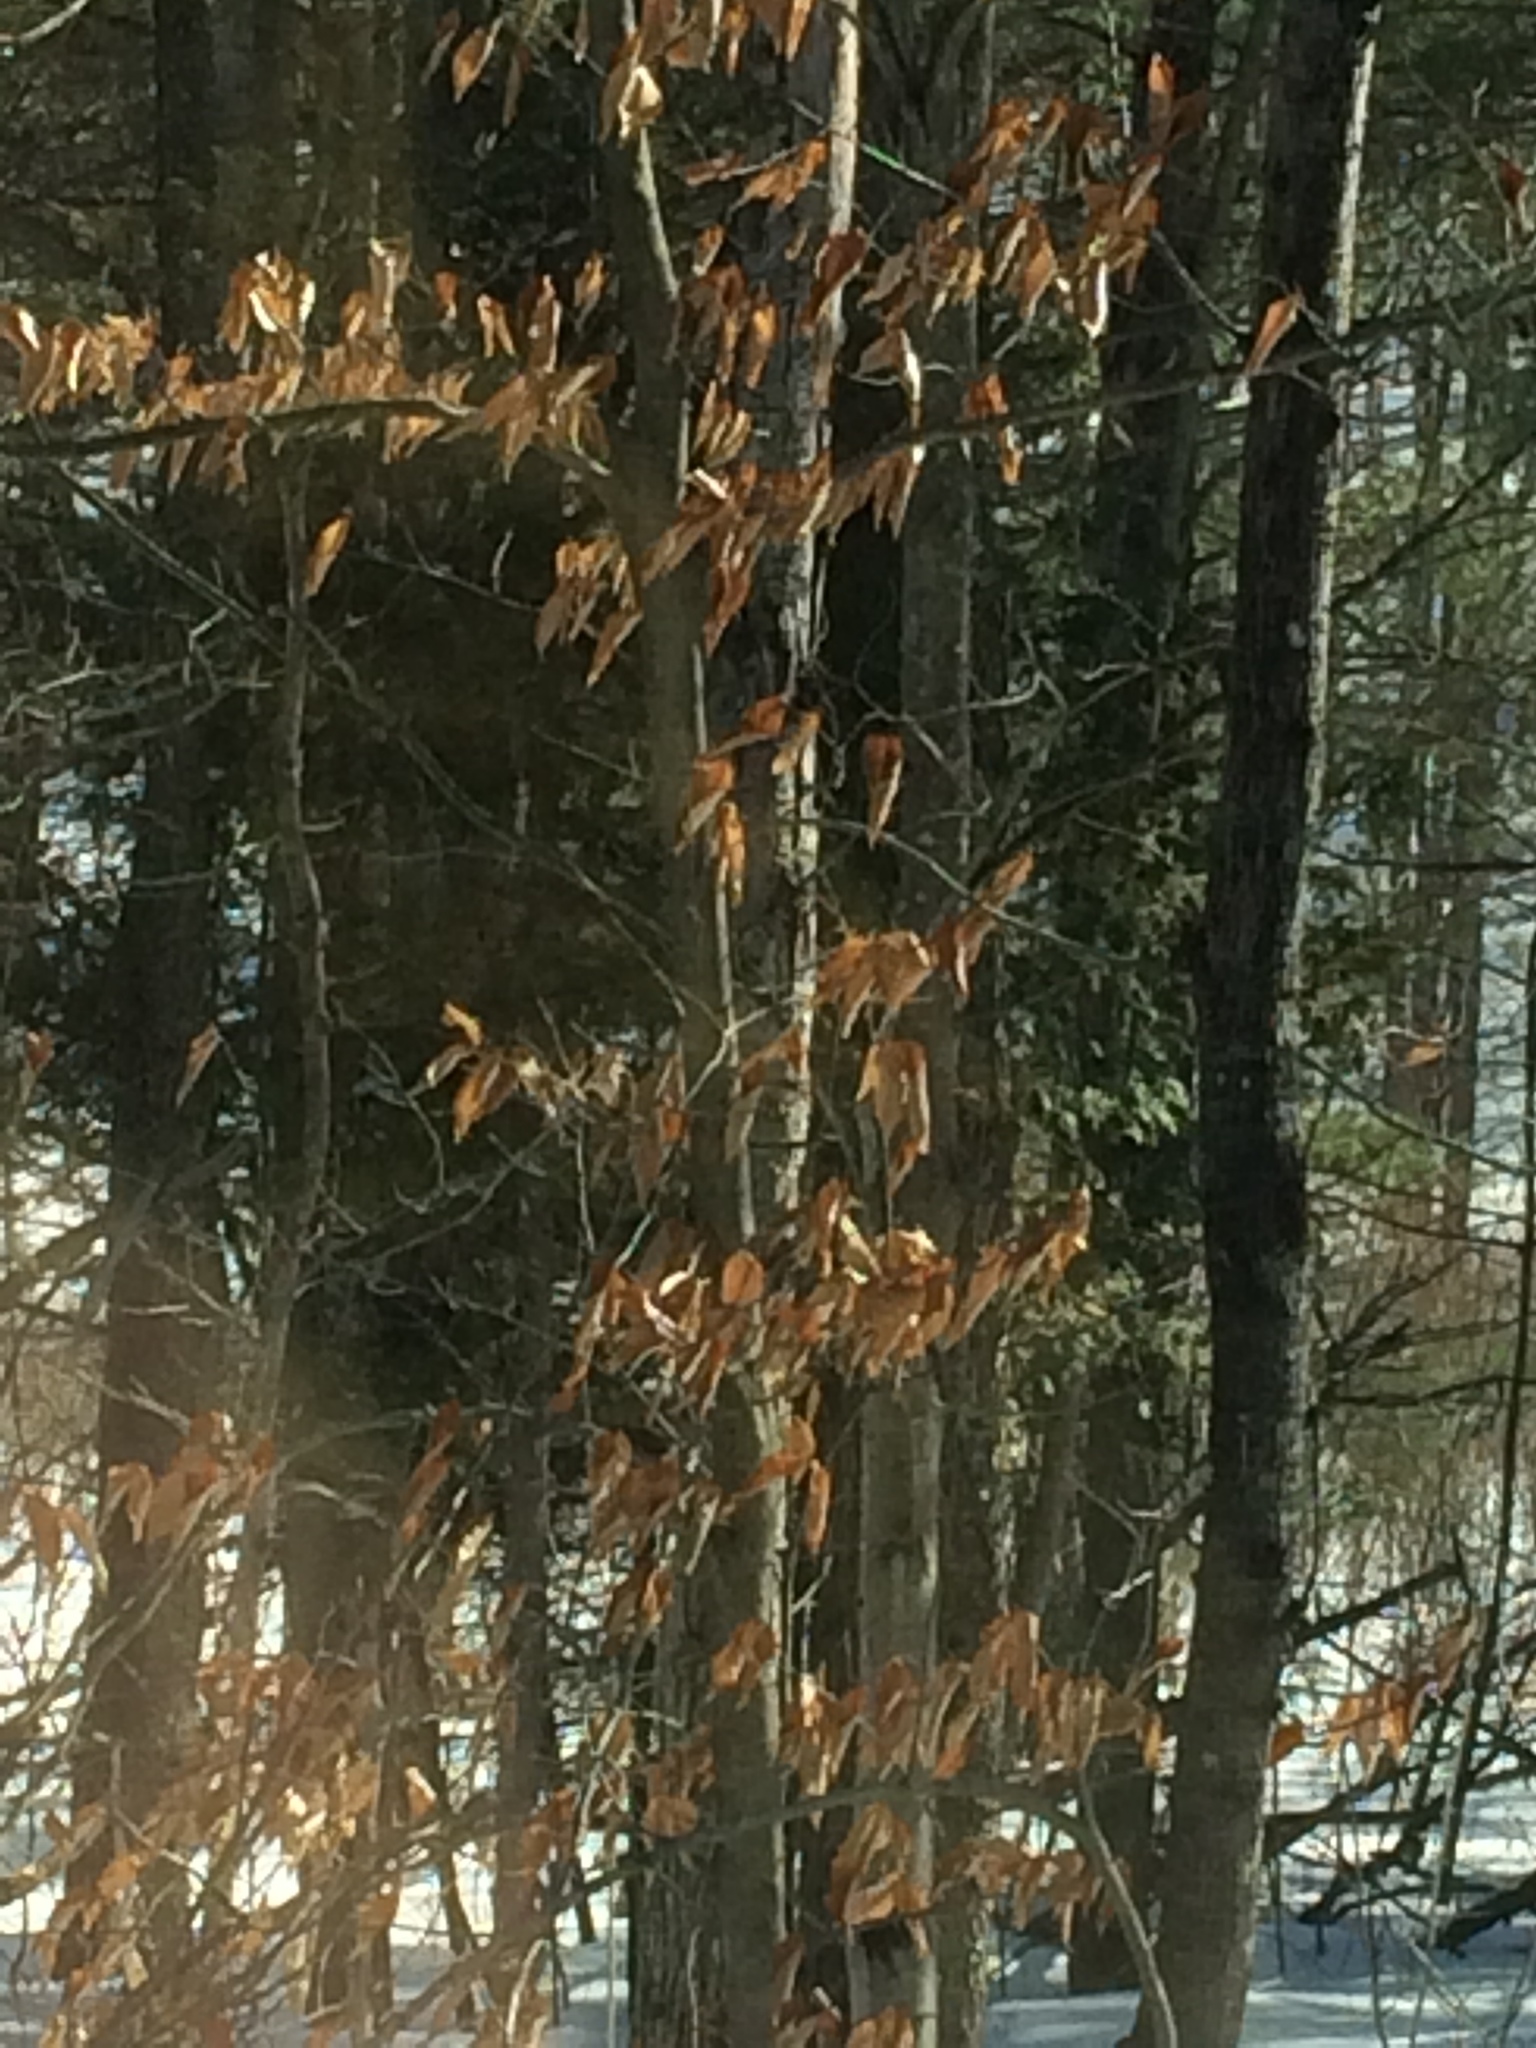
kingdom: Plantae
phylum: Tracheophyta
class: Magnoliopsida
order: Fagales
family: Fagaceae
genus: Fagus
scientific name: Fagus grandifolia
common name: American beech
